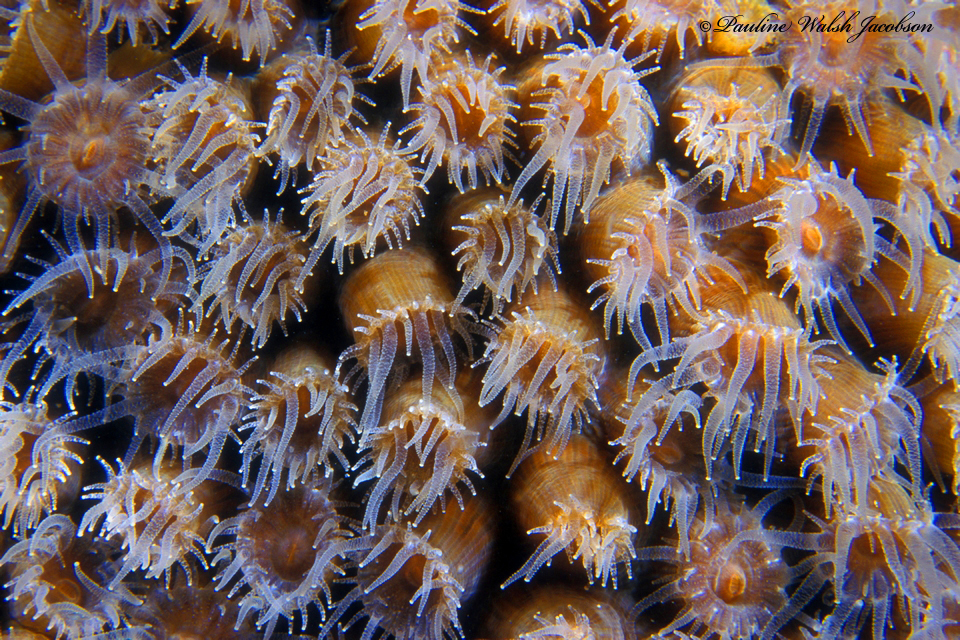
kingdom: Animalia
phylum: Cnidaria
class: Anthozoa
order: Scleractinia
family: Montastraeidae
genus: Montastraea
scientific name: Montastraea cavernosa
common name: Great star coral
